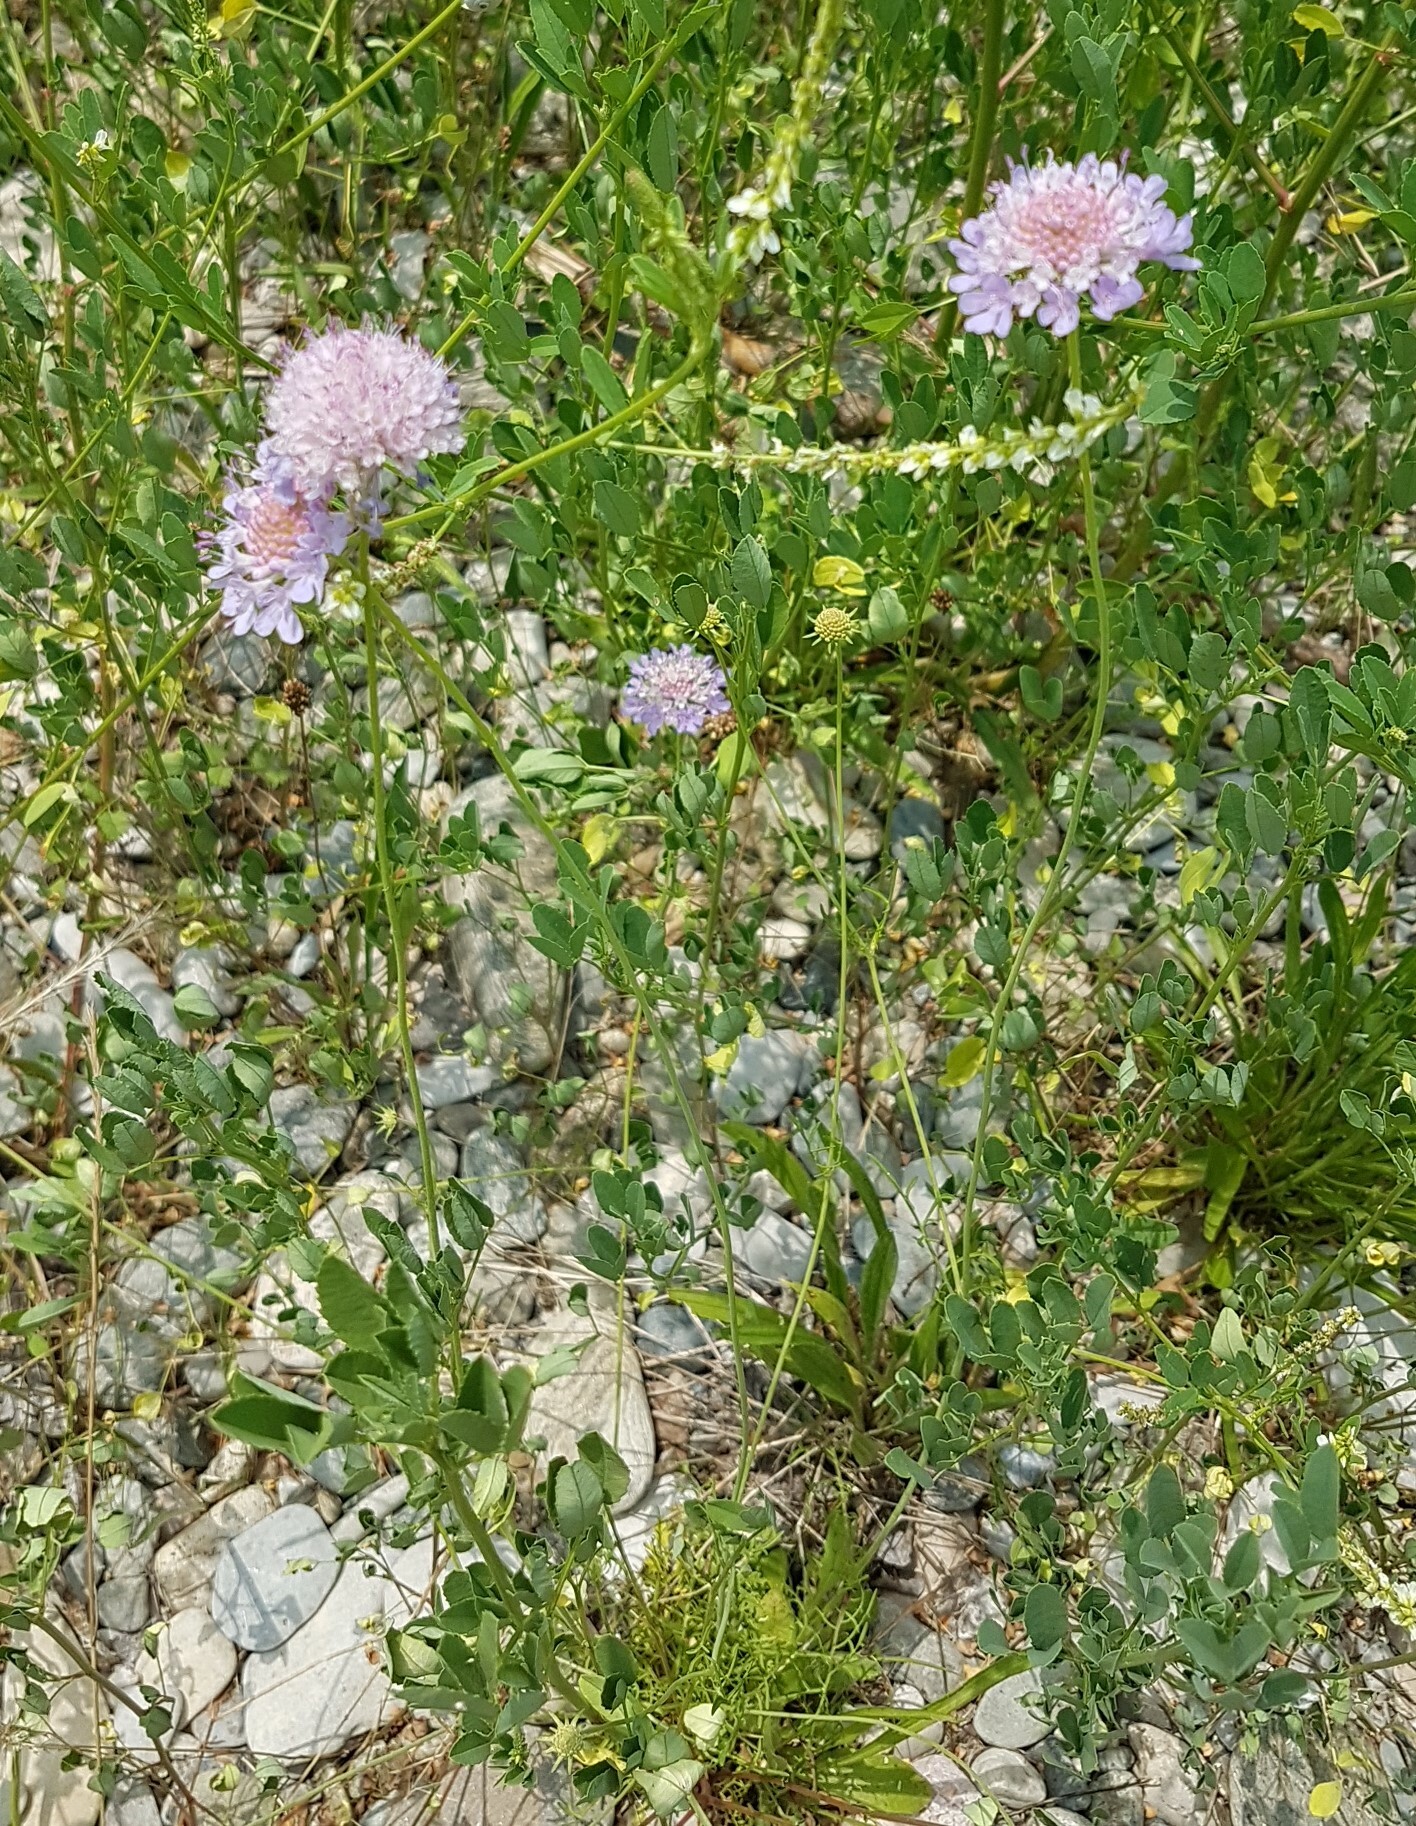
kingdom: Plantae
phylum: Tracheophyta
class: Magnoliopsida
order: Dipsacales
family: Caprifoliaceae
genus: Sixalix
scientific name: Sixalix atropurpurea
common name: Sweet scabious
